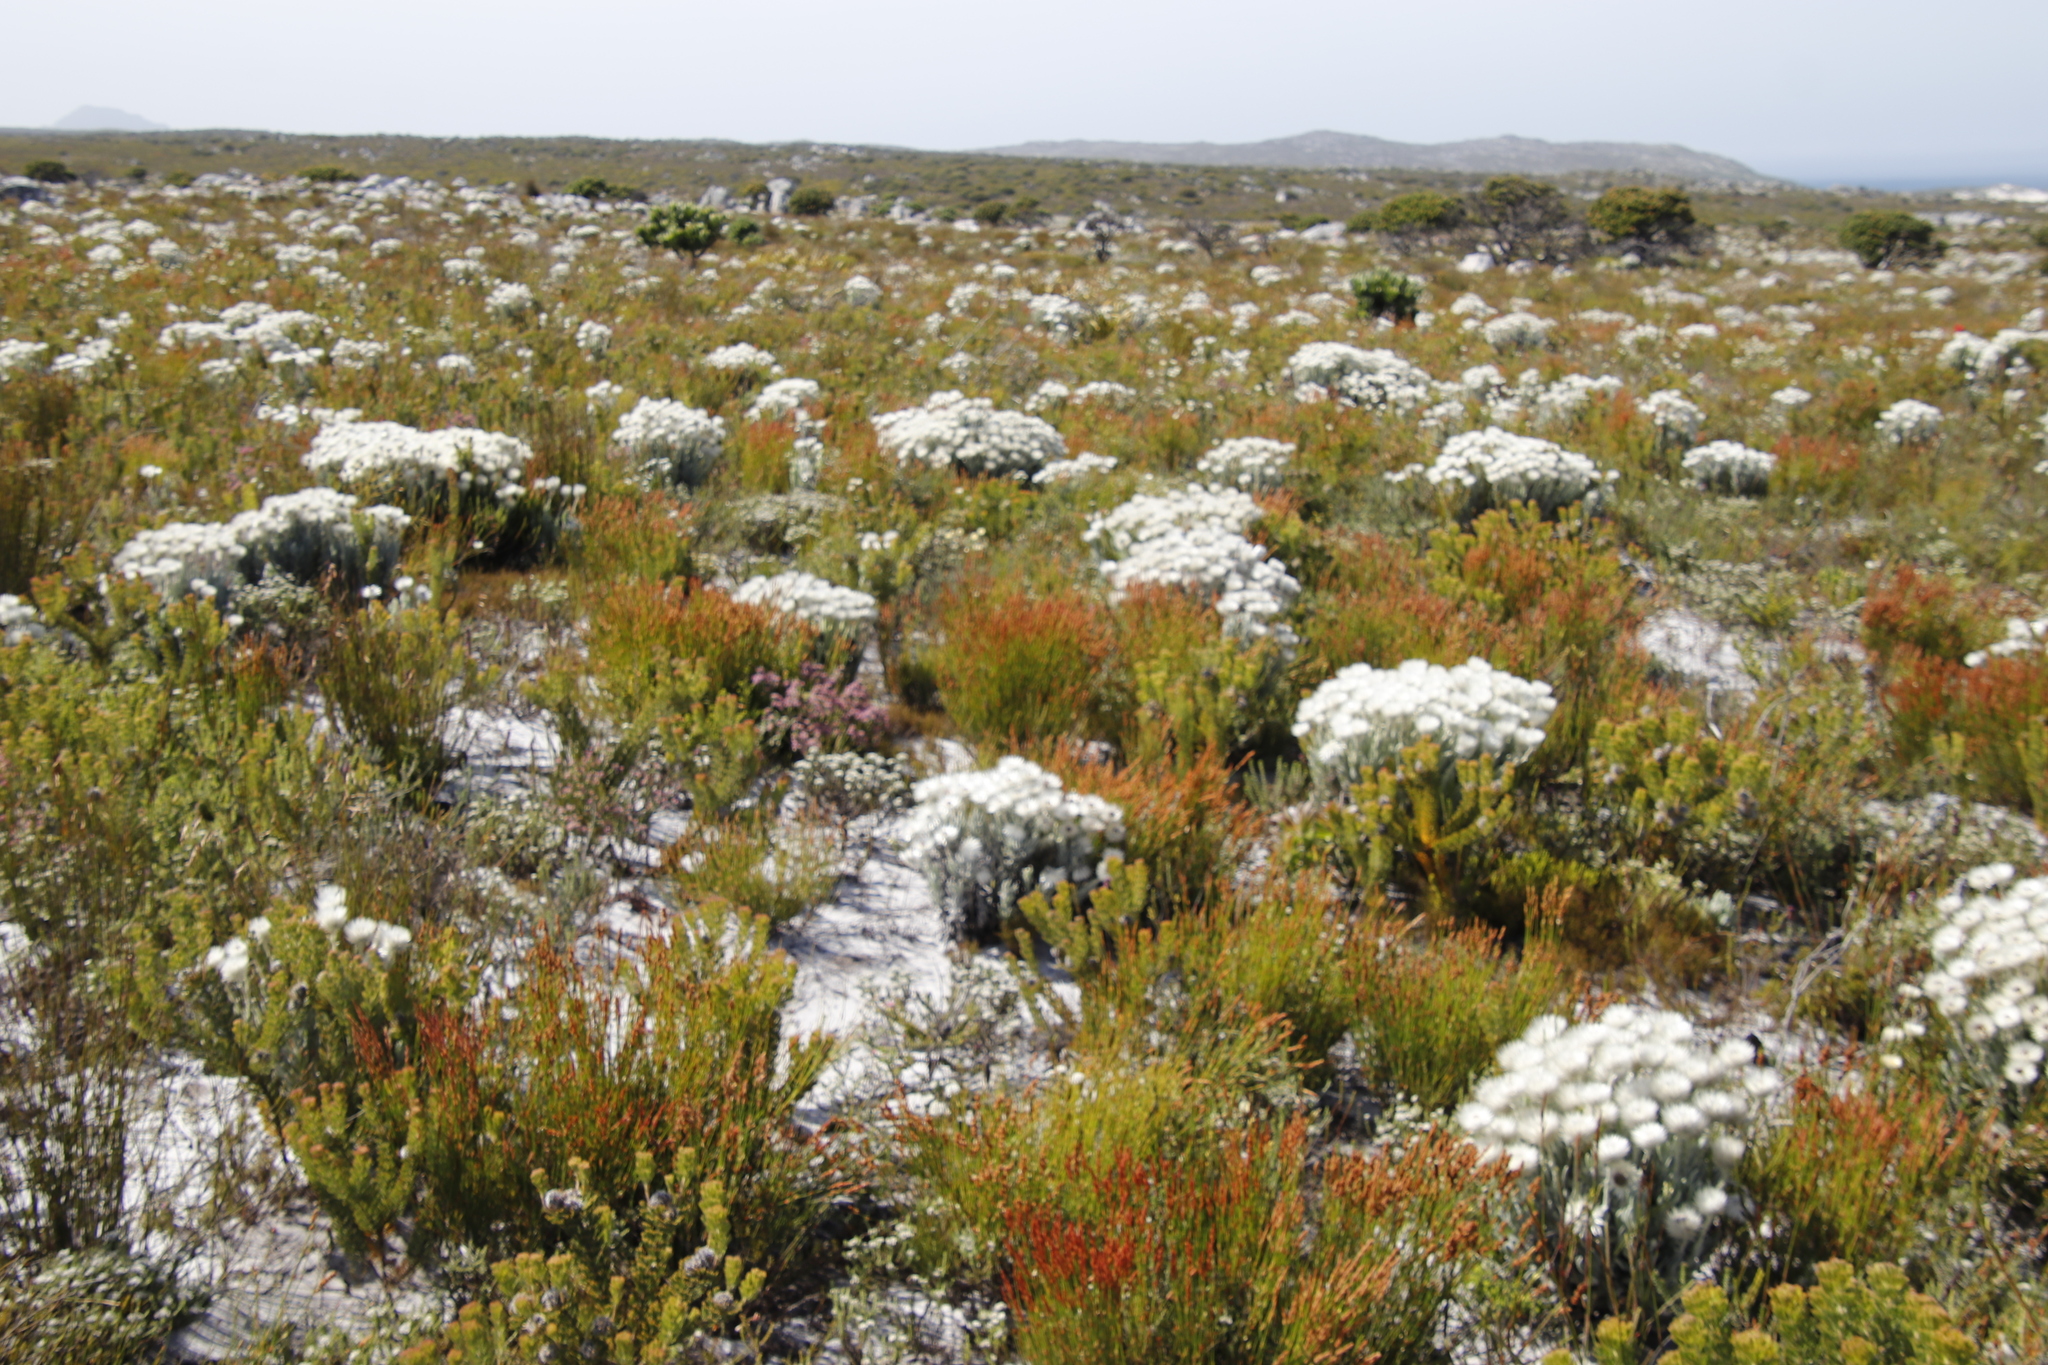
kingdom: Plantae
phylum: Tracheophyta
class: Magnoliopsida
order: Asterales
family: Asteraceae
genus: Syncarpha
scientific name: Syncarpha vestita
